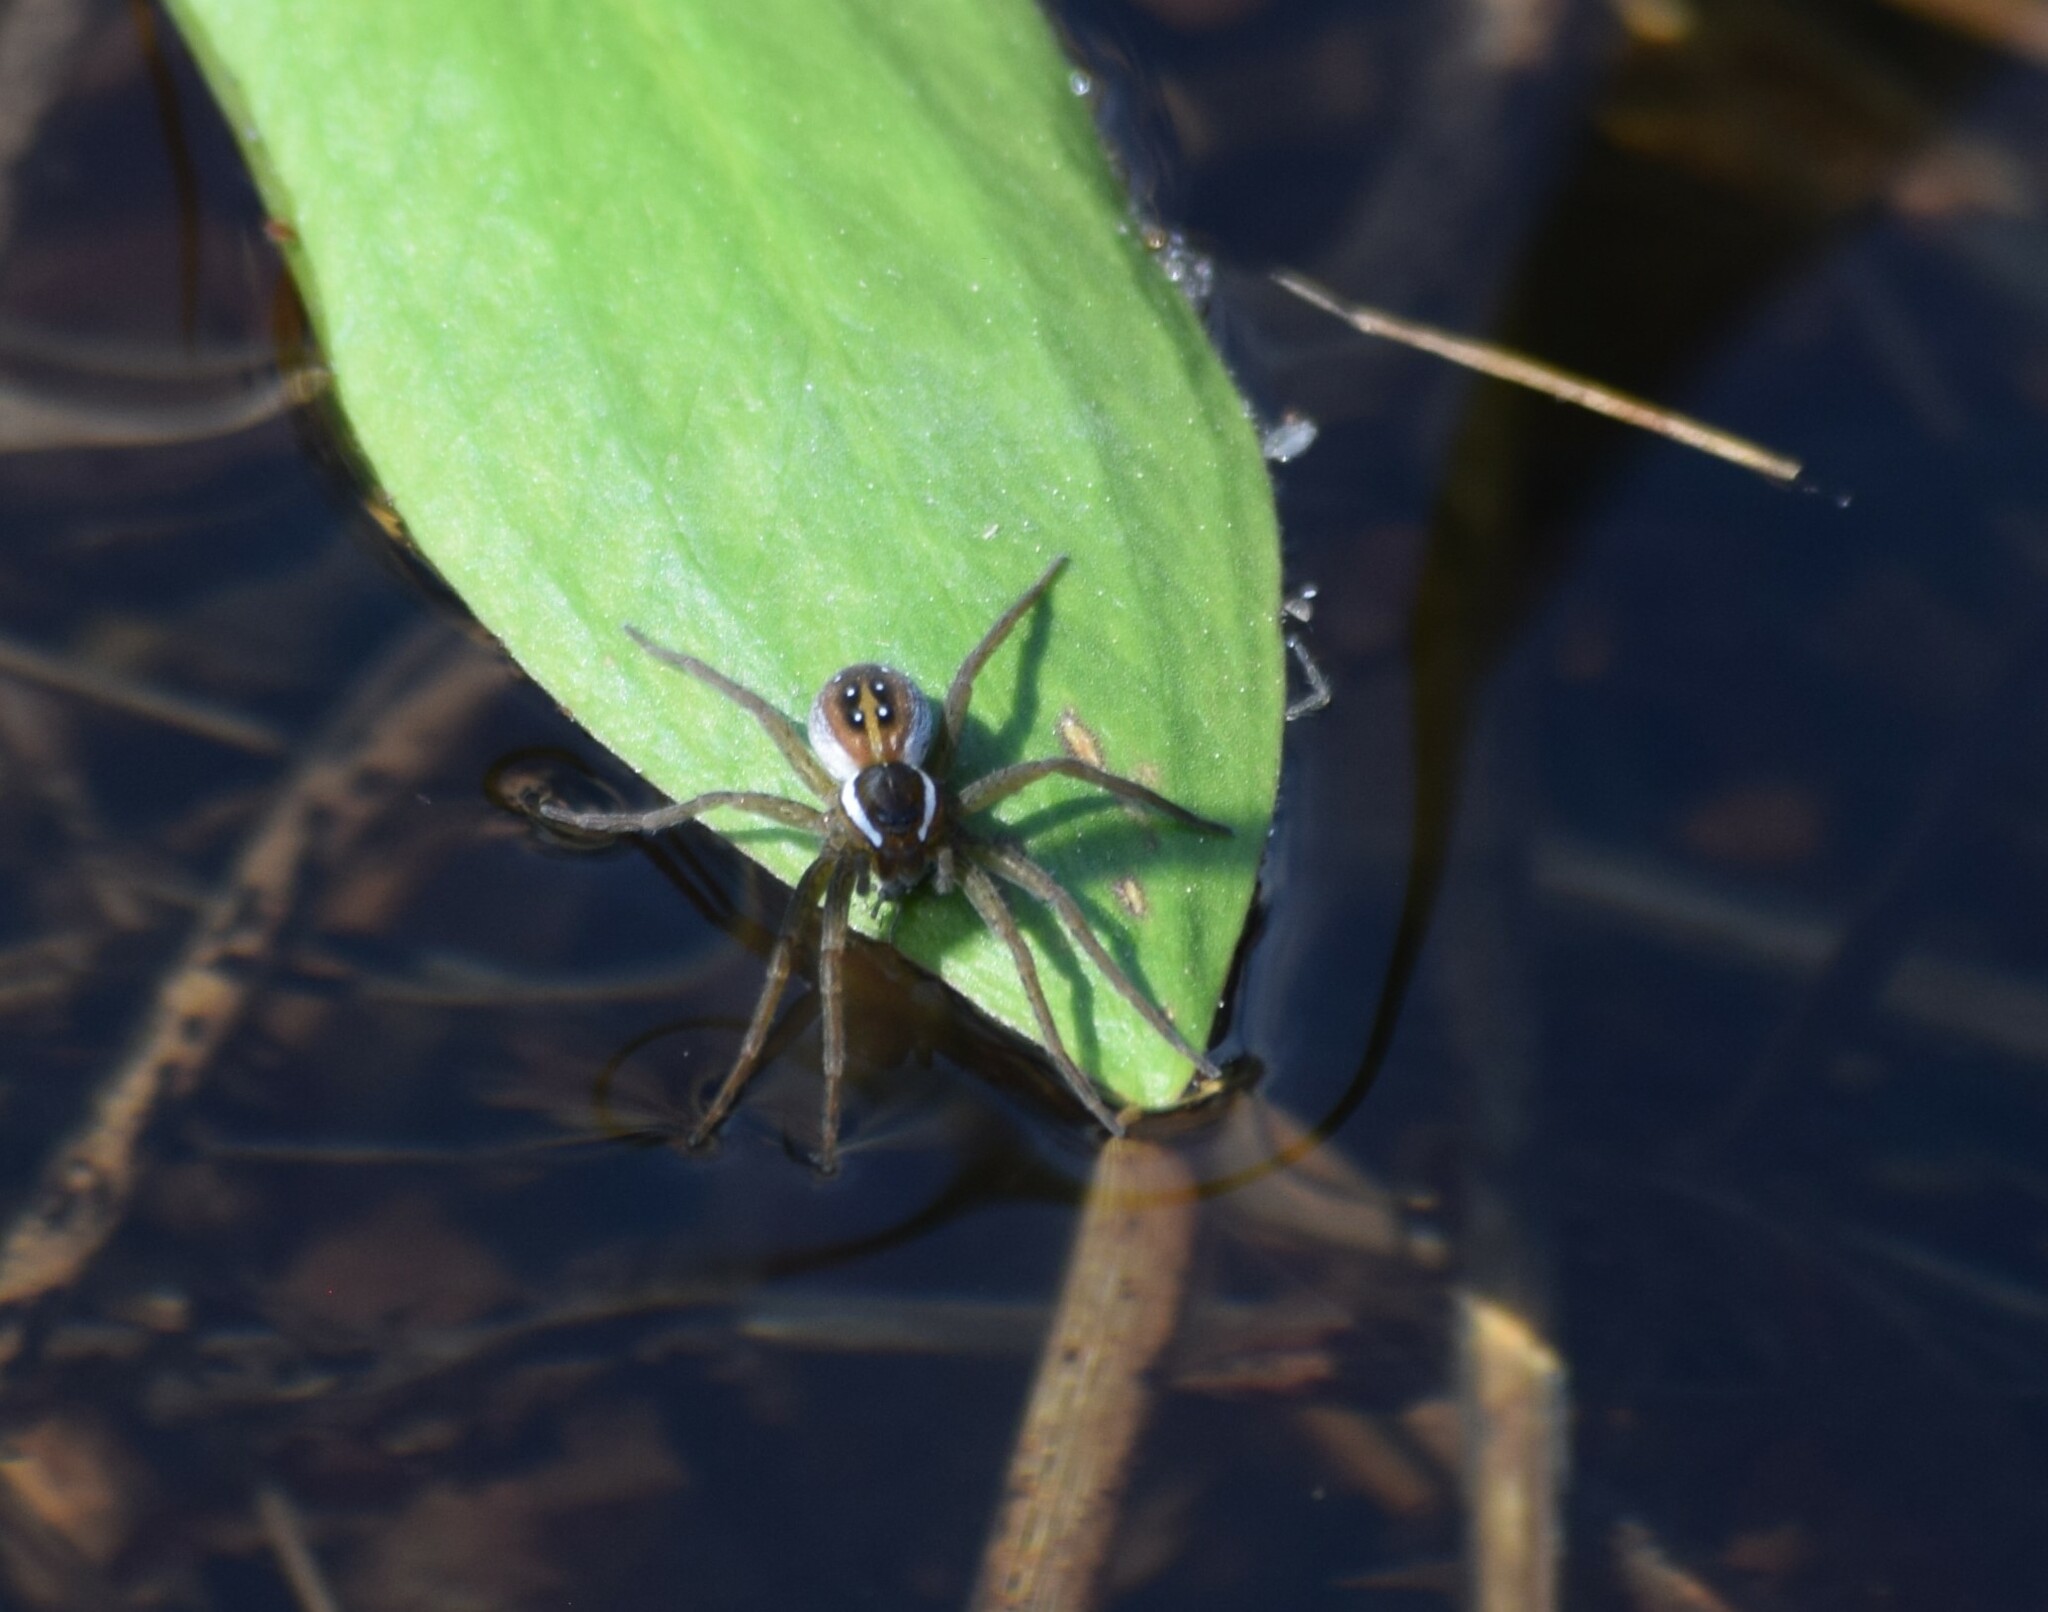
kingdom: Animalia
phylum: Arthropoda
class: Arachnida
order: Araneae
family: Pisauridae
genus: Dolomedes
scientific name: Dolomedes triton
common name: Six-spotted fishing spider
